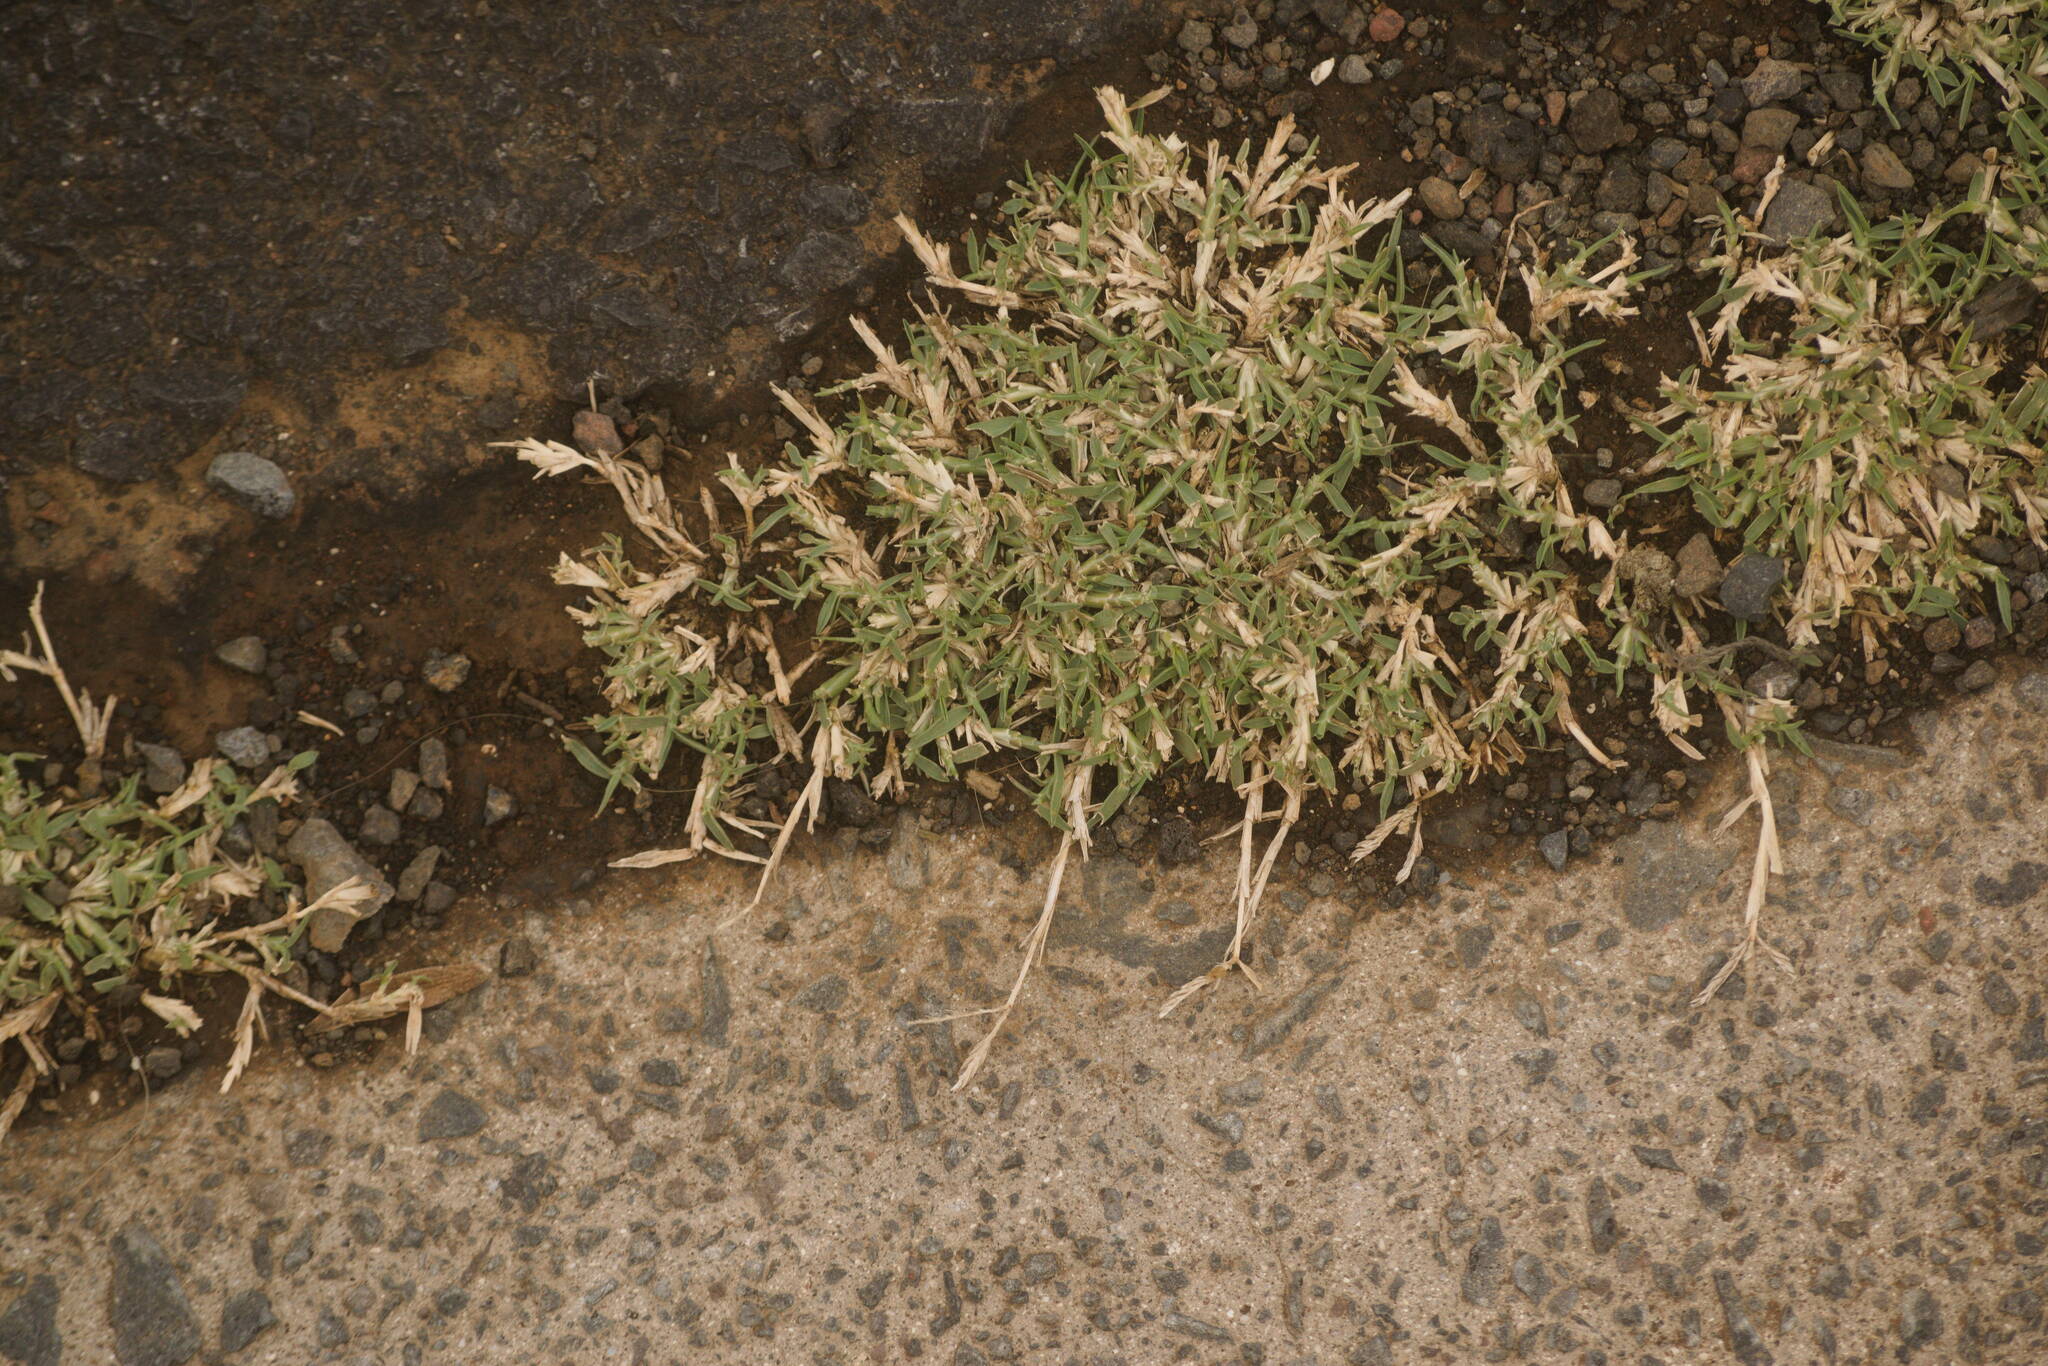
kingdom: Plantae
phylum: Tracheophyta
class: Liliopsida
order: Poales
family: Poaceae
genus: Cynodon
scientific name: Cynodon dactylon
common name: Bermuda grass
